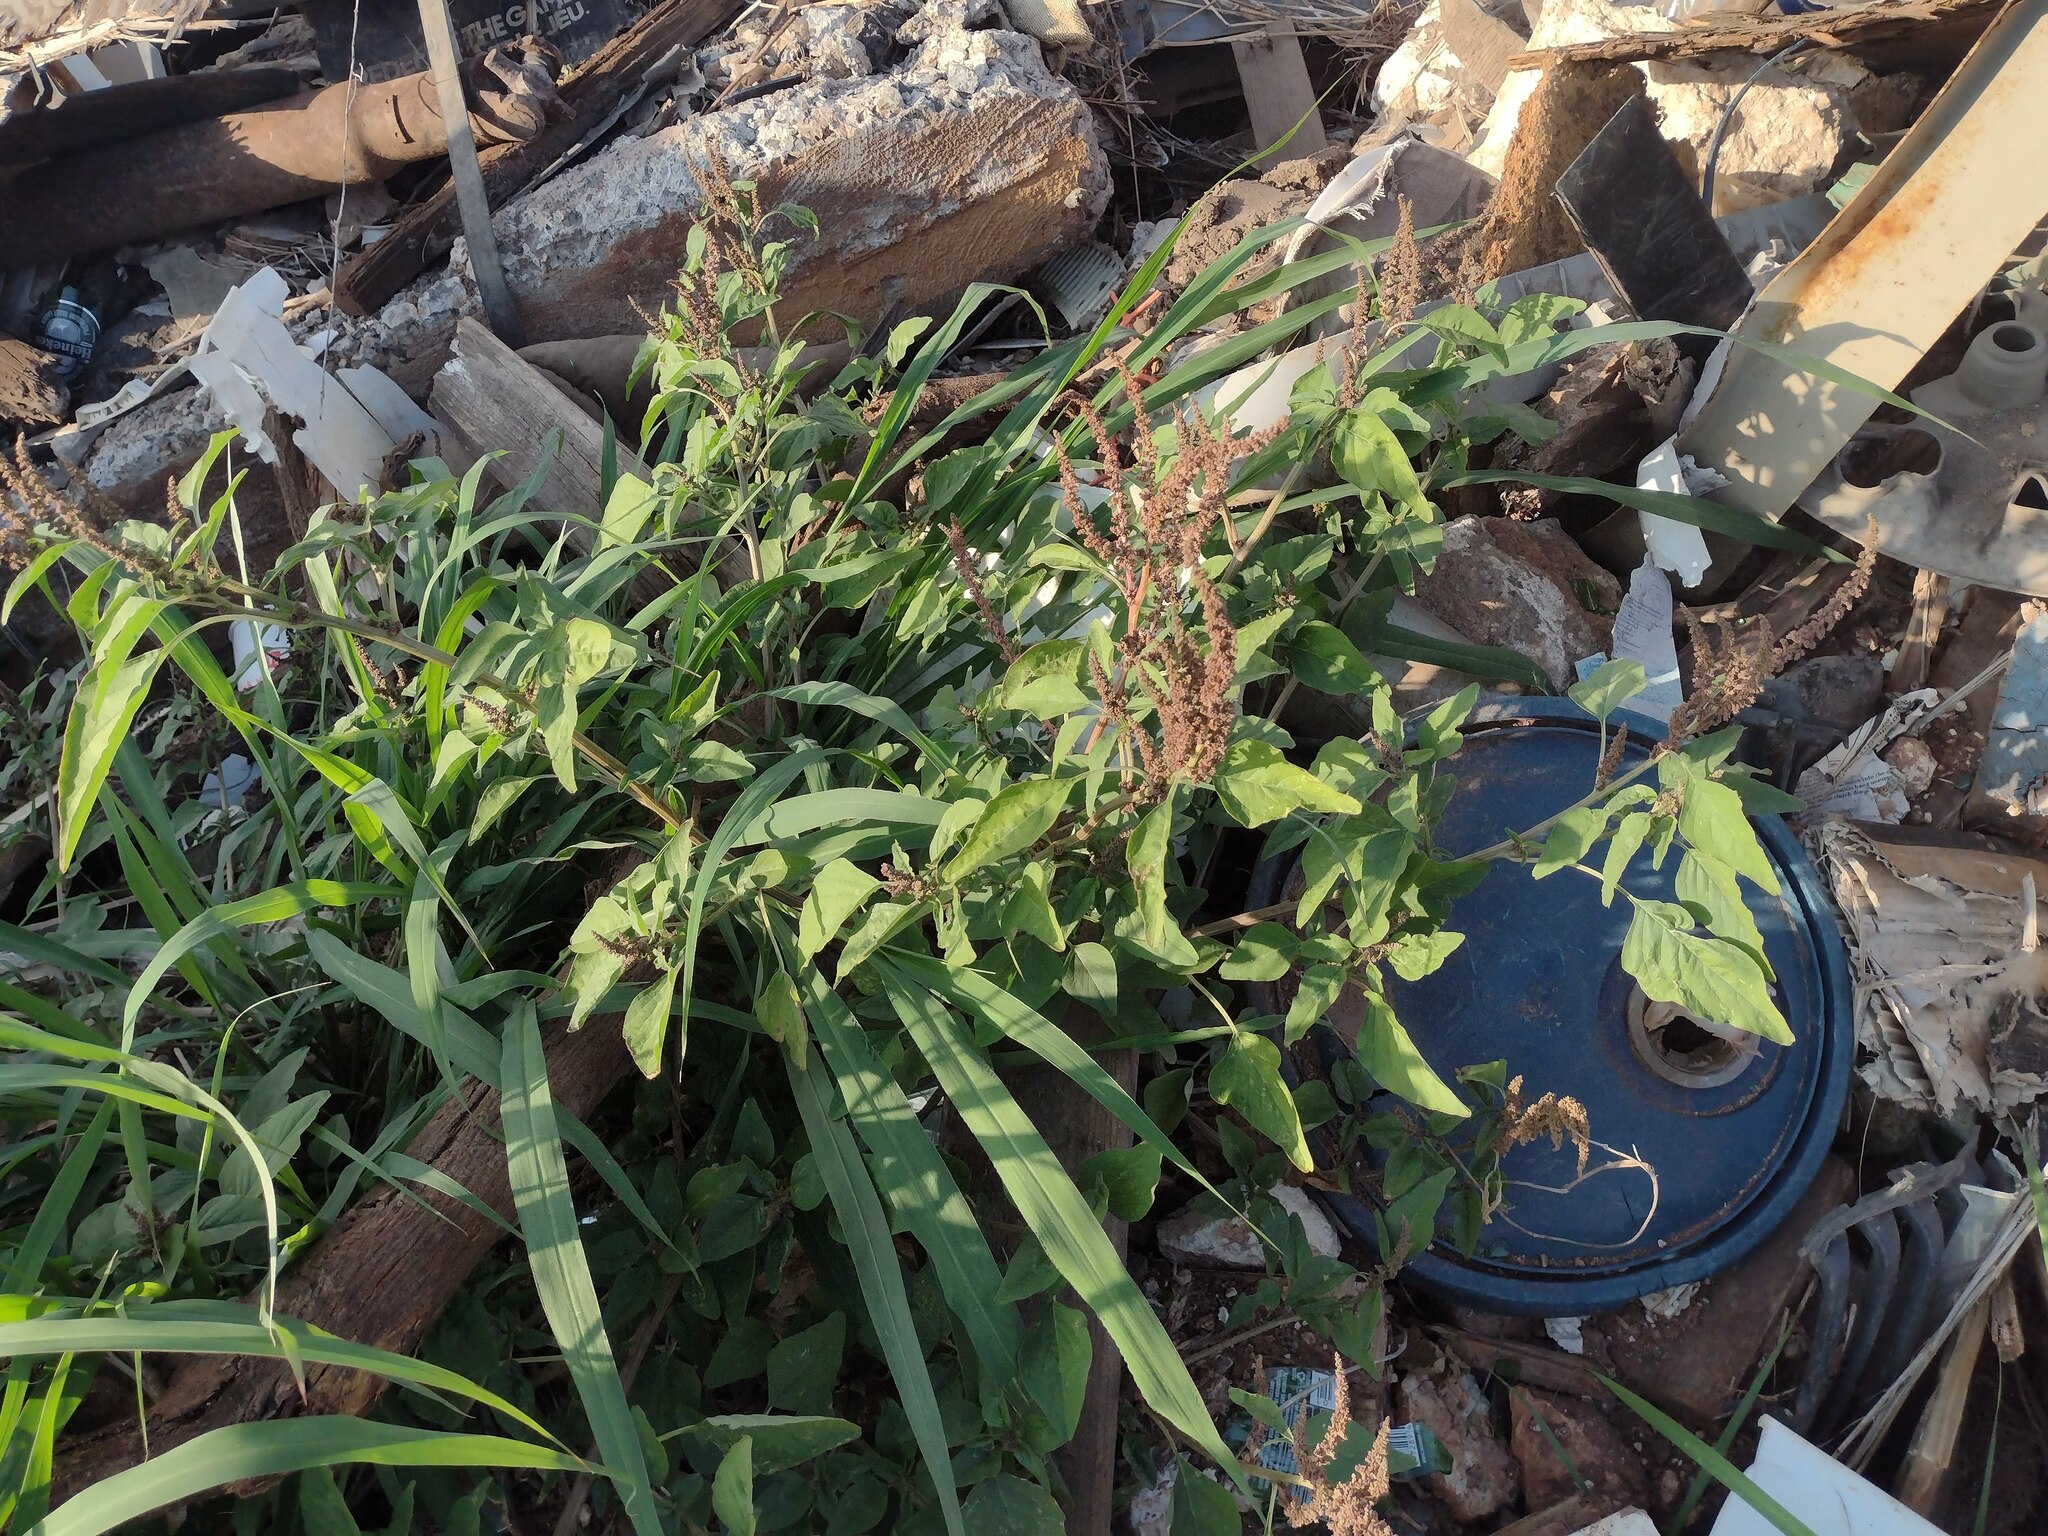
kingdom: Plantae
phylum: Tracheophyta
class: Magnoliopsida
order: Caryophyllales
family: Amaranthaceae
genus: Amaranthus
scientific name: Amaranthus viridis
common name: Slender amaranth
